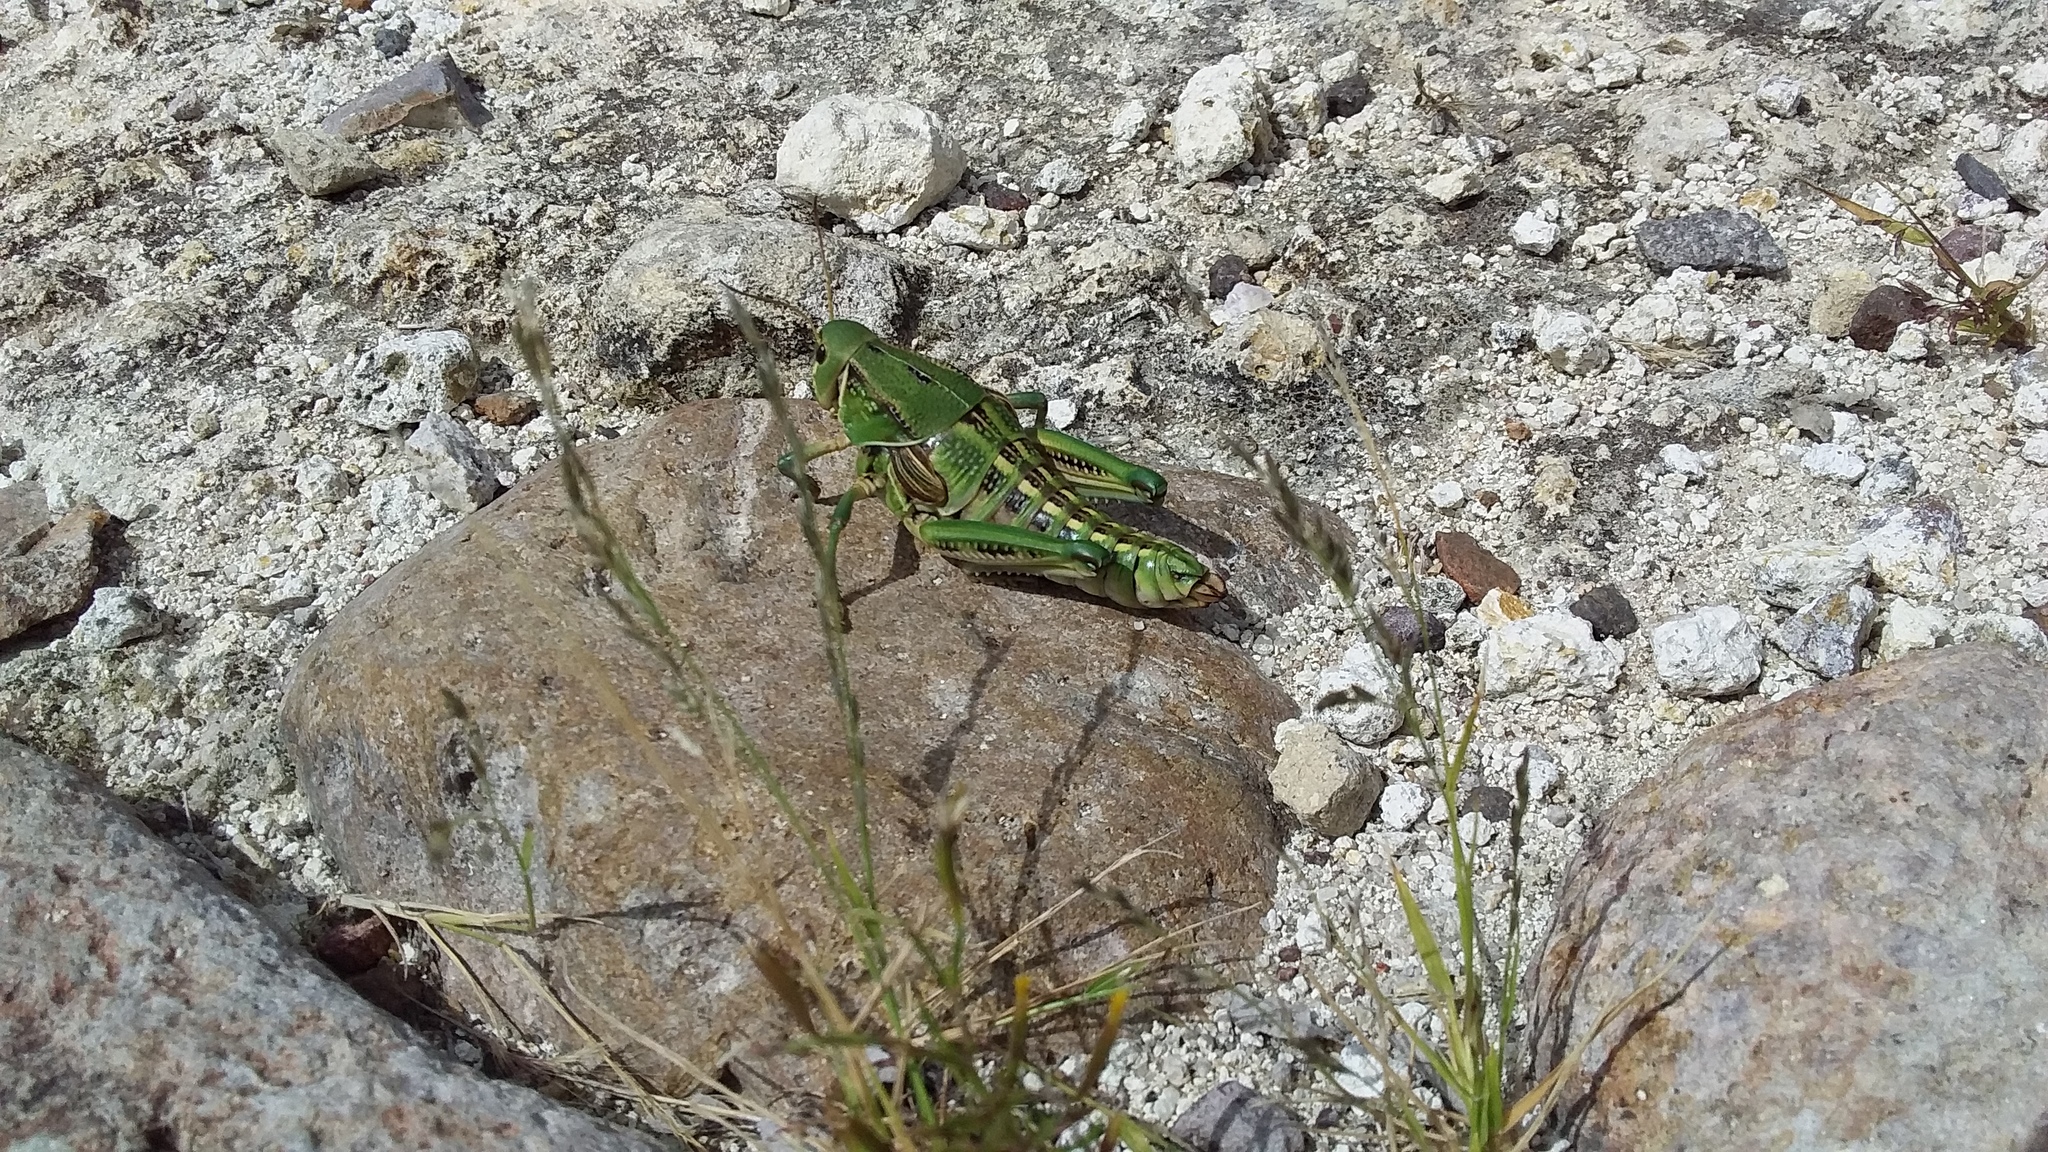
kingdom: Animalia
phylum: Arthropoda
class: Insecta
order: Orthoptera
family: Romaleidae
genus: Brachystola
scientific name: Brachystola mexicana
